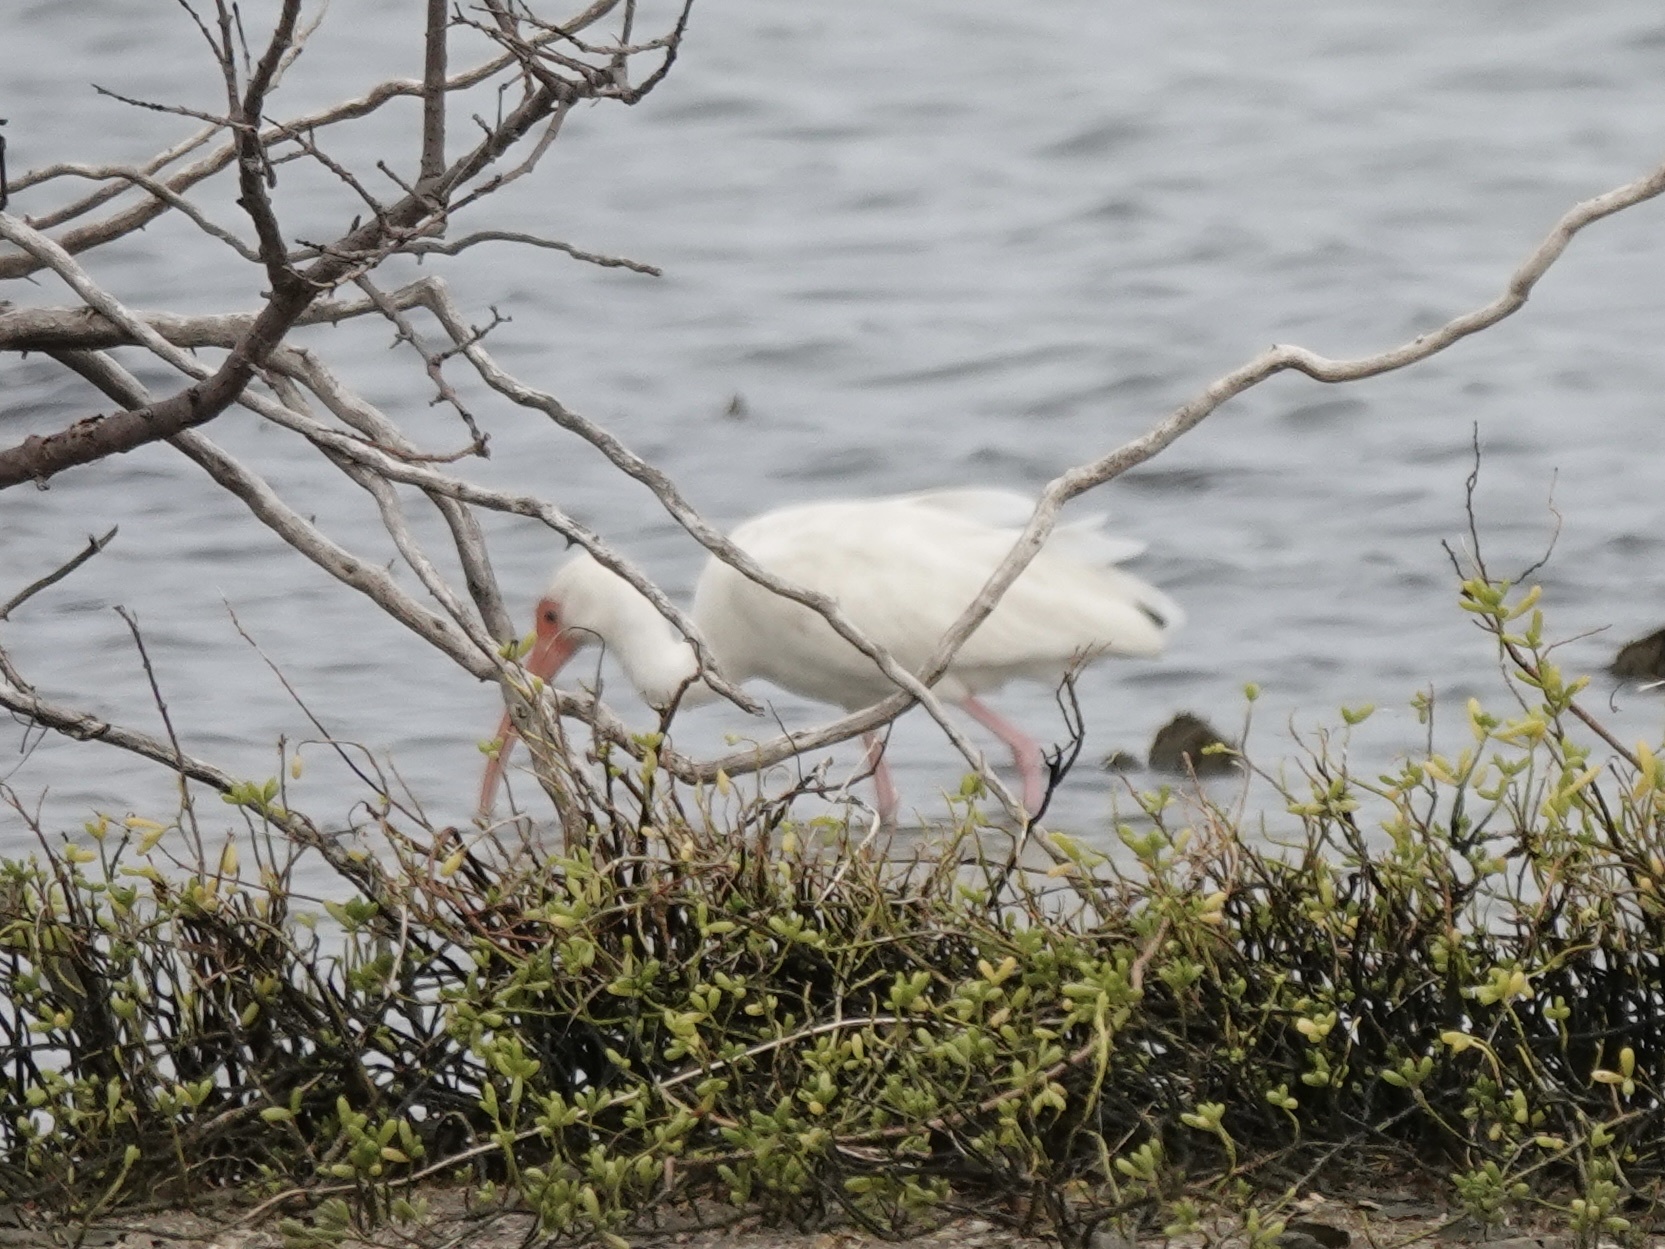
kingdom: Animalia
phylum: Chordata
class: Aves
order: Pelecaniformes
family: Threskiornithidae
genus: Eudocimus
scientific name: Eudocimus albus
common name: White ibis
